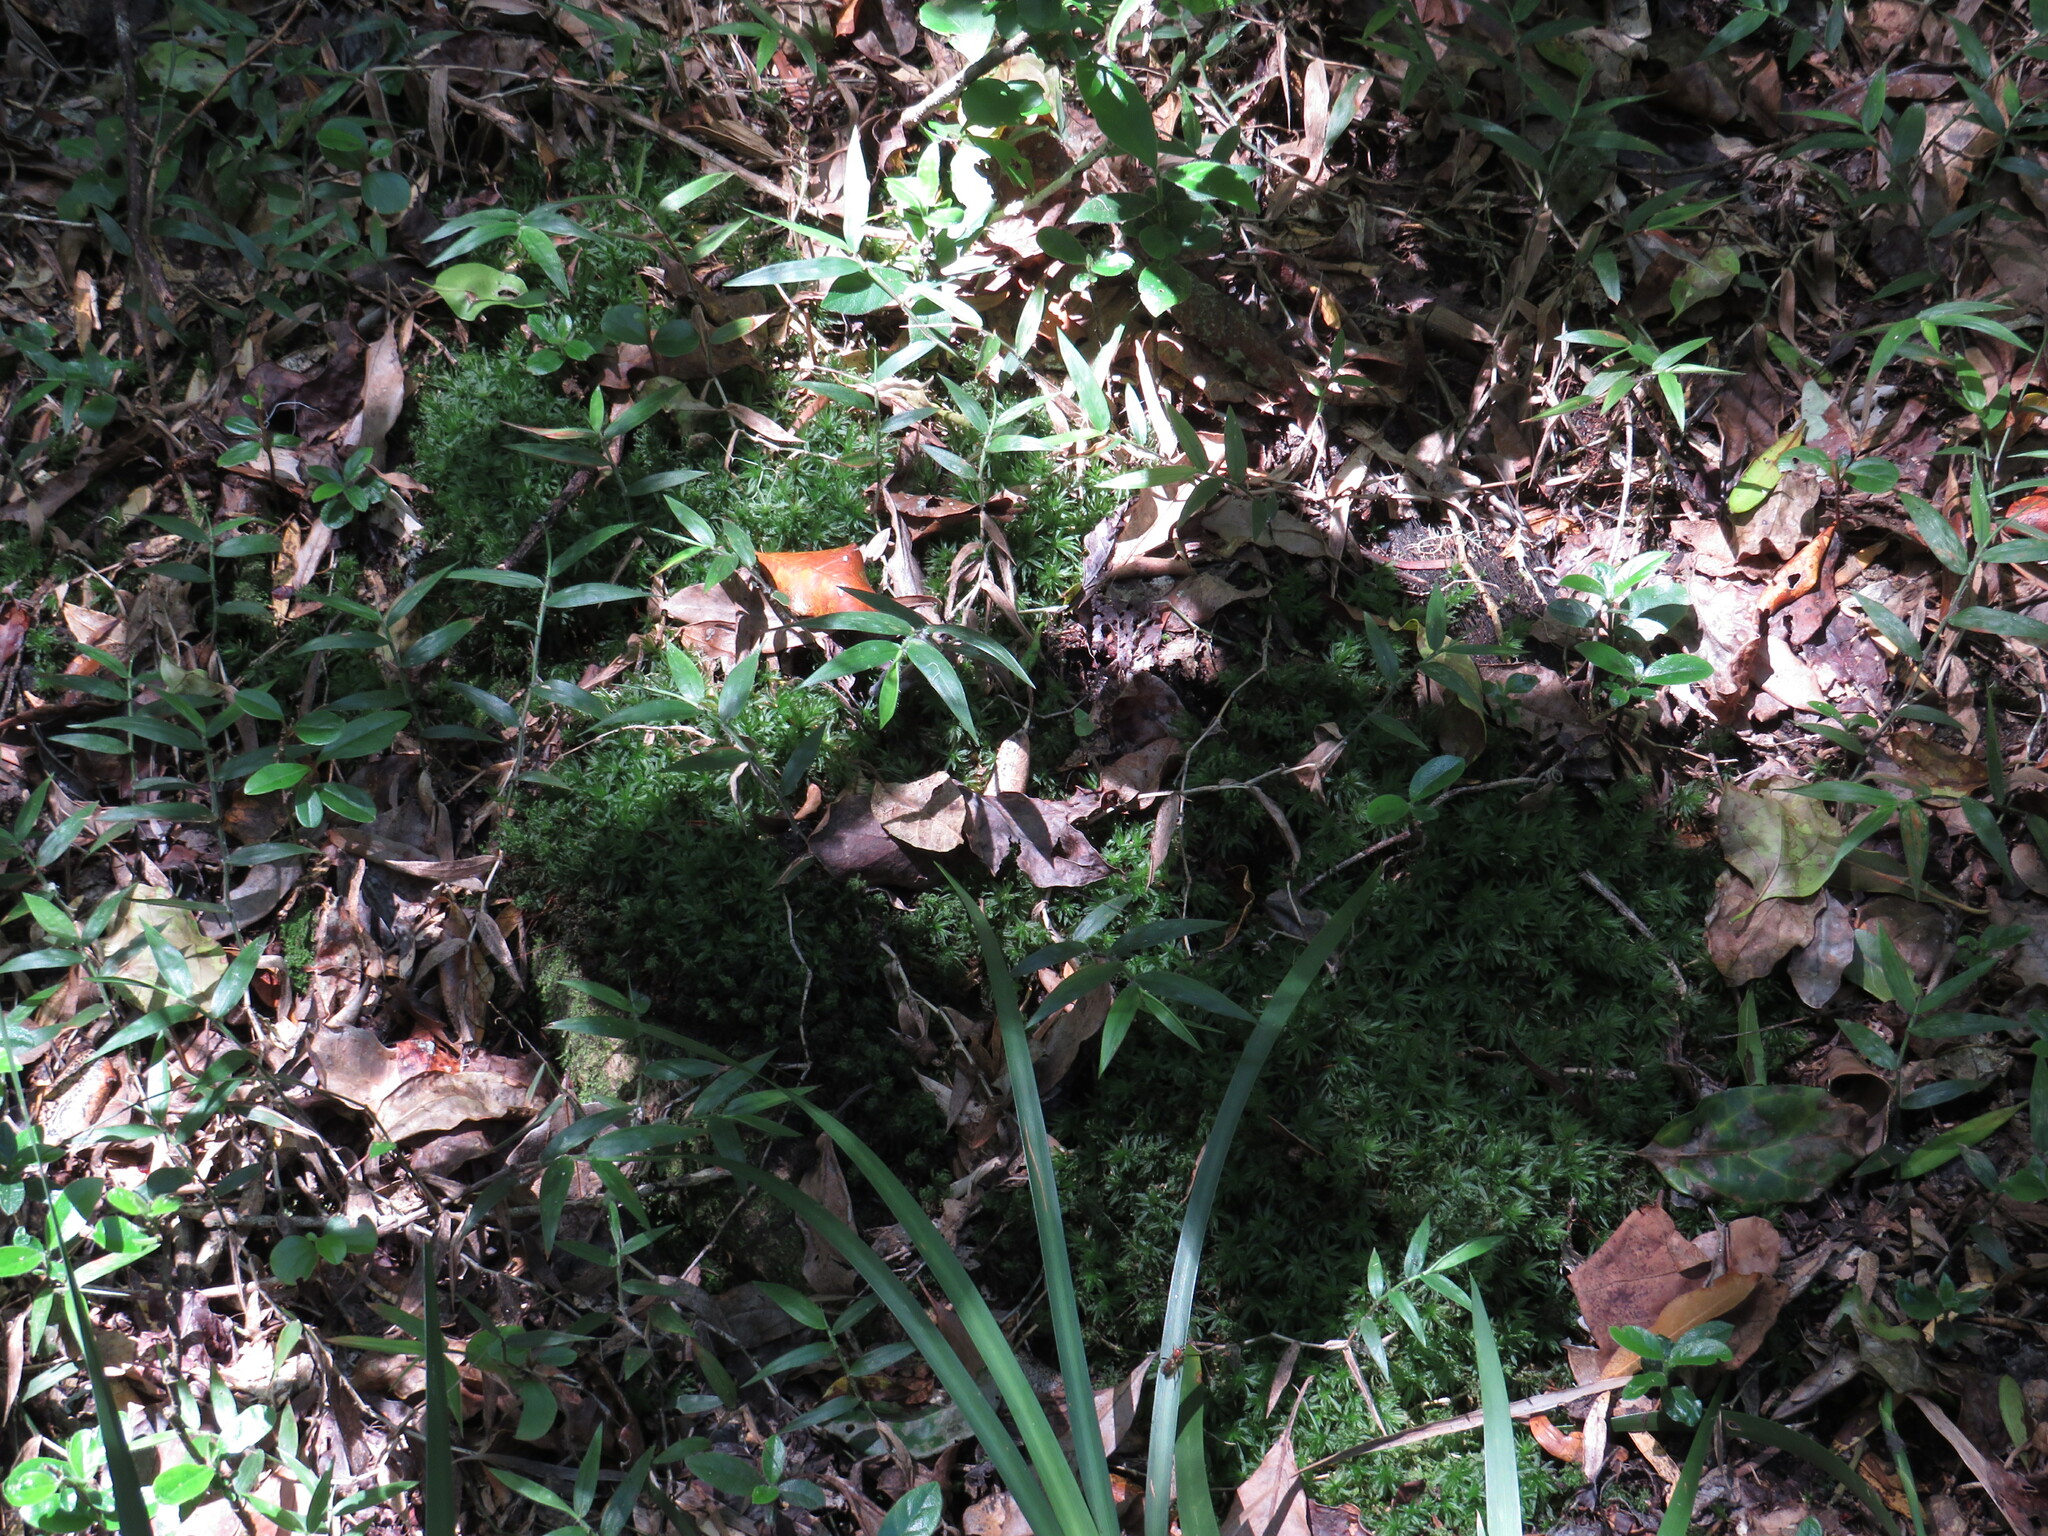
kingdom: Plantae
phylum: Tracheophyta
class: Liliopsida
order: Poales
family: Poaceae
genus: Oplismenus
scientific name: Oplismenus hirtellus
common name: Basketgrass
